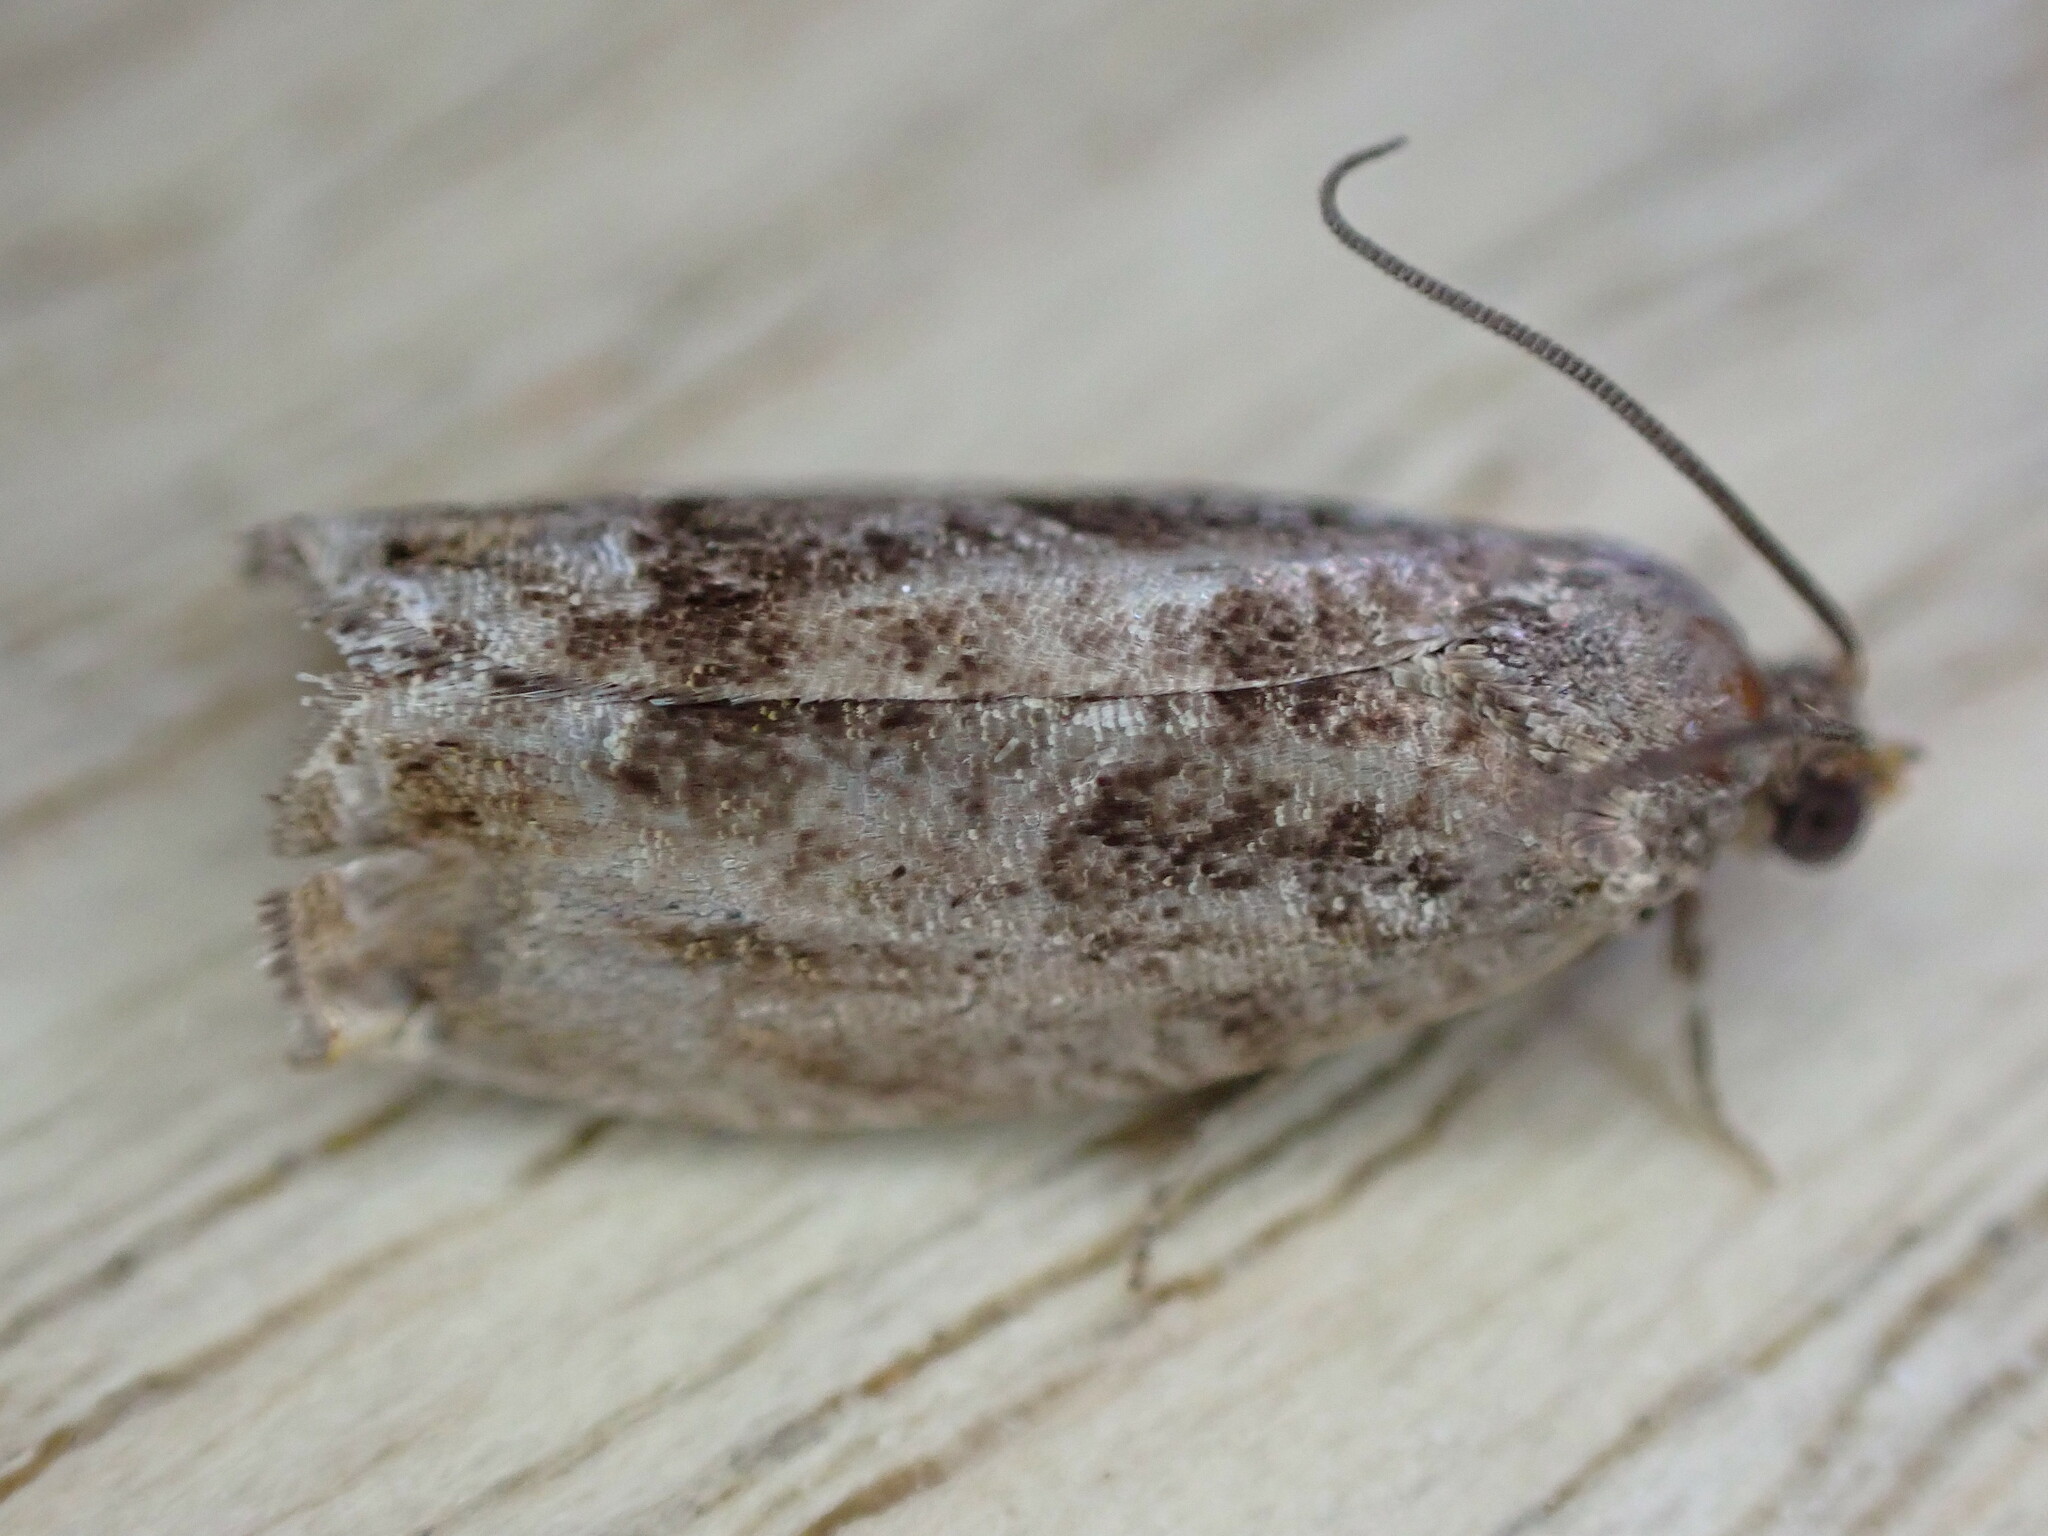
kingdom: Animalia
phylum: Arthropoda
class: Insecta
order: Lepidoptera
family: Tortricidae
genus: Cydia
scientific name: Cydia fagiglandana
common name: Large beech piercer
